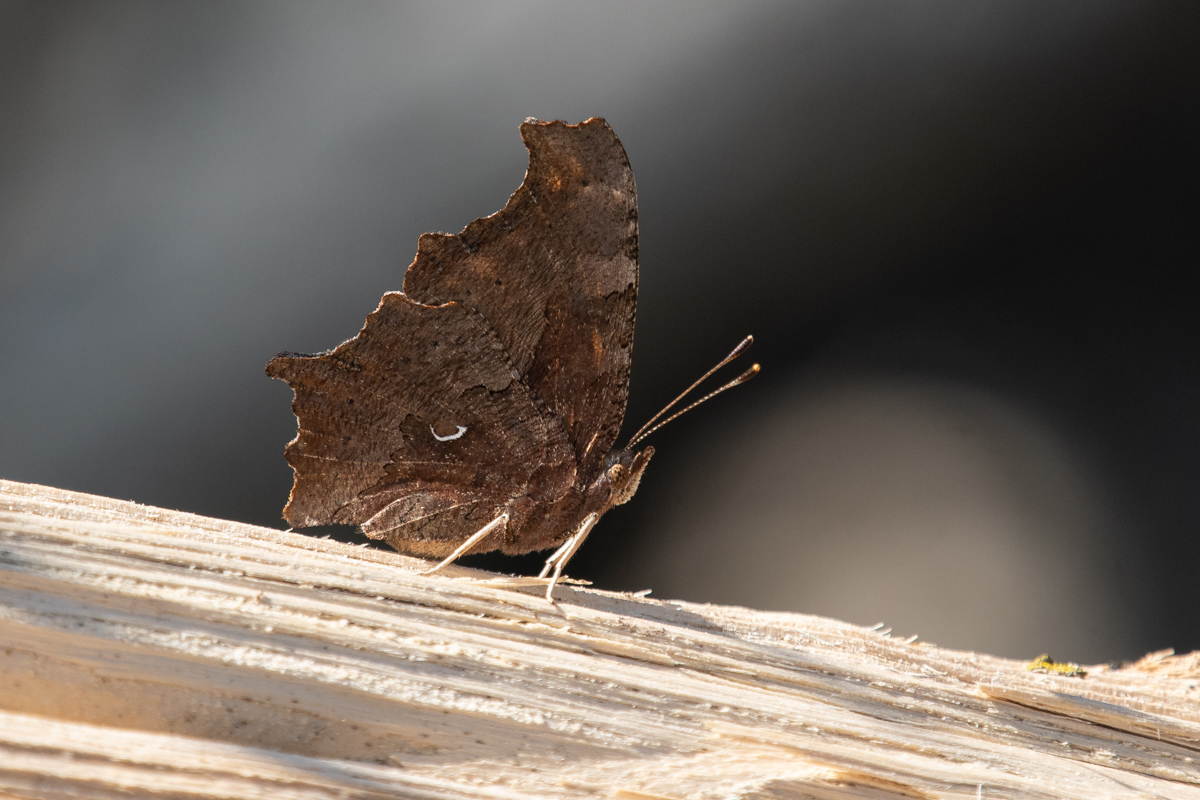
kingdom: Animalia
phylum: Arthropoda
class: Insecta
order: Lepidoptera
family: Nymphalidae
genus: Polygonia
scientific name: Polygonia comma
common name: Eastern comma
